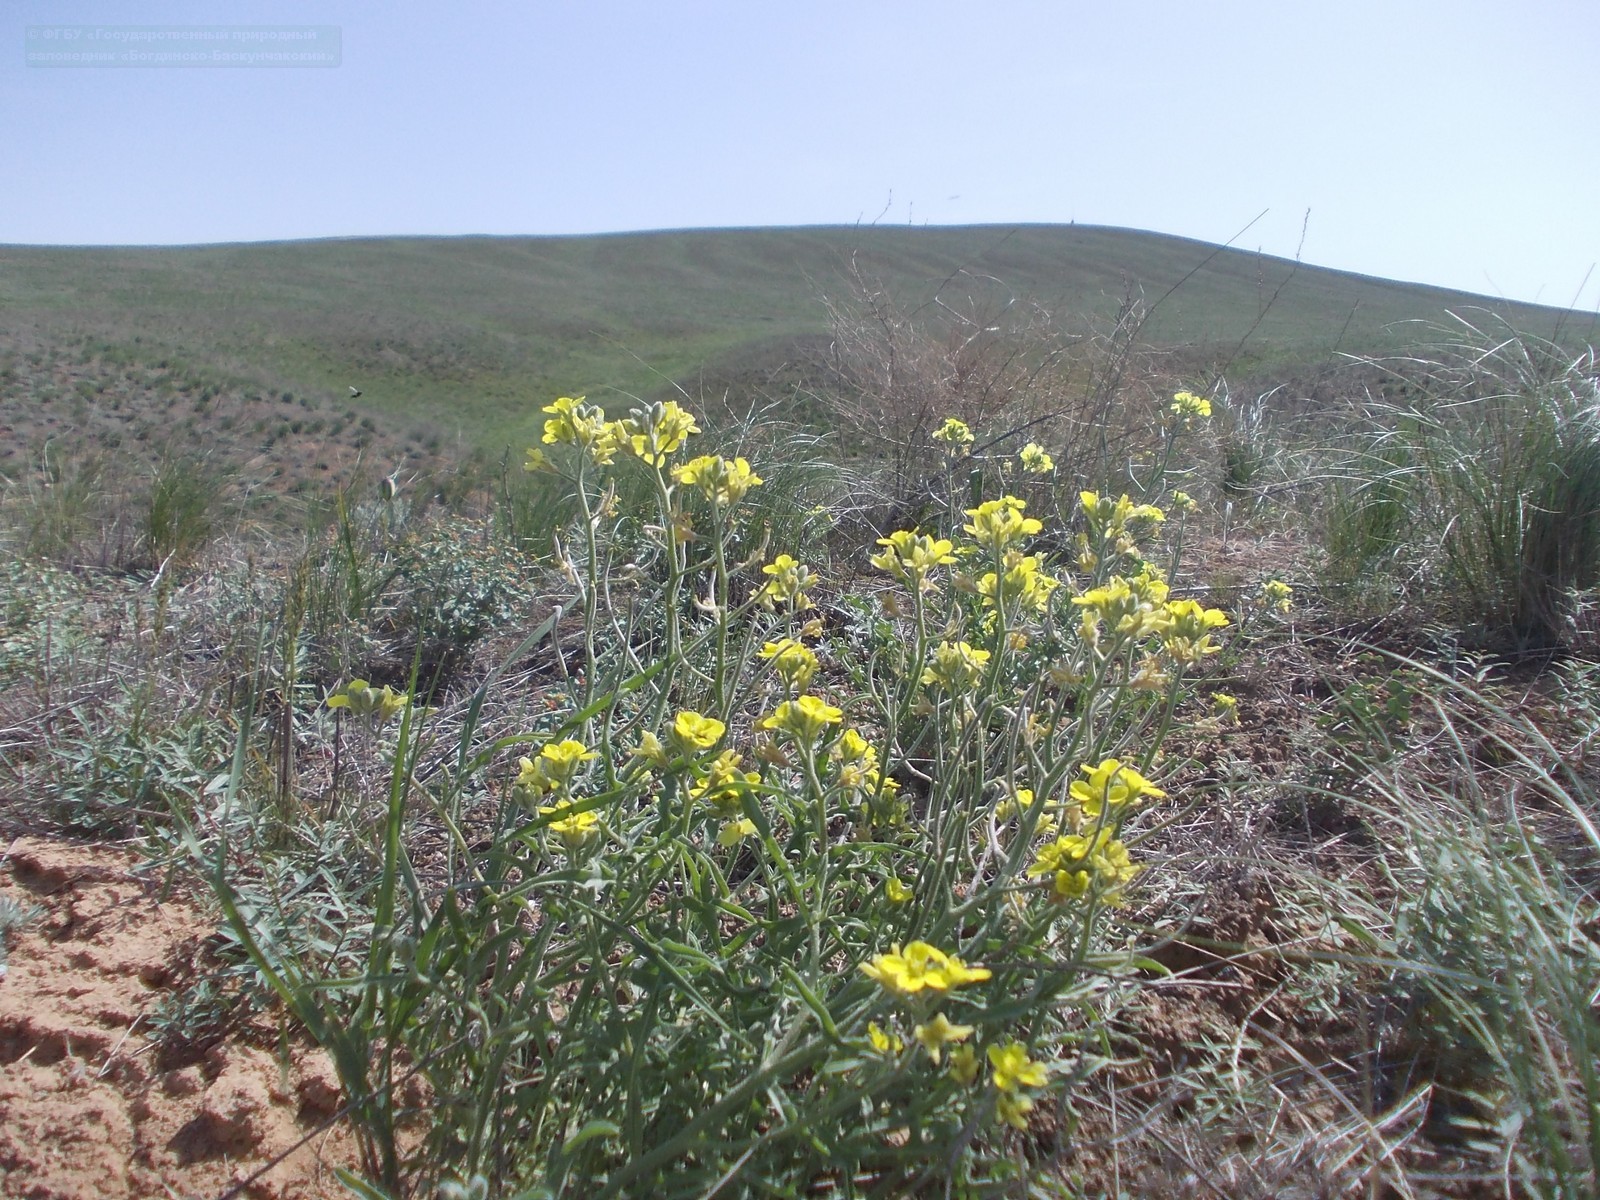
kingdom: Plantae
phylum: Tracheophyta
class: Magnoliopsida
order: Brassicales
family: Brassicaceae
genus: Sterigmostemum
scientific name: Sterigmostemum caspicum
